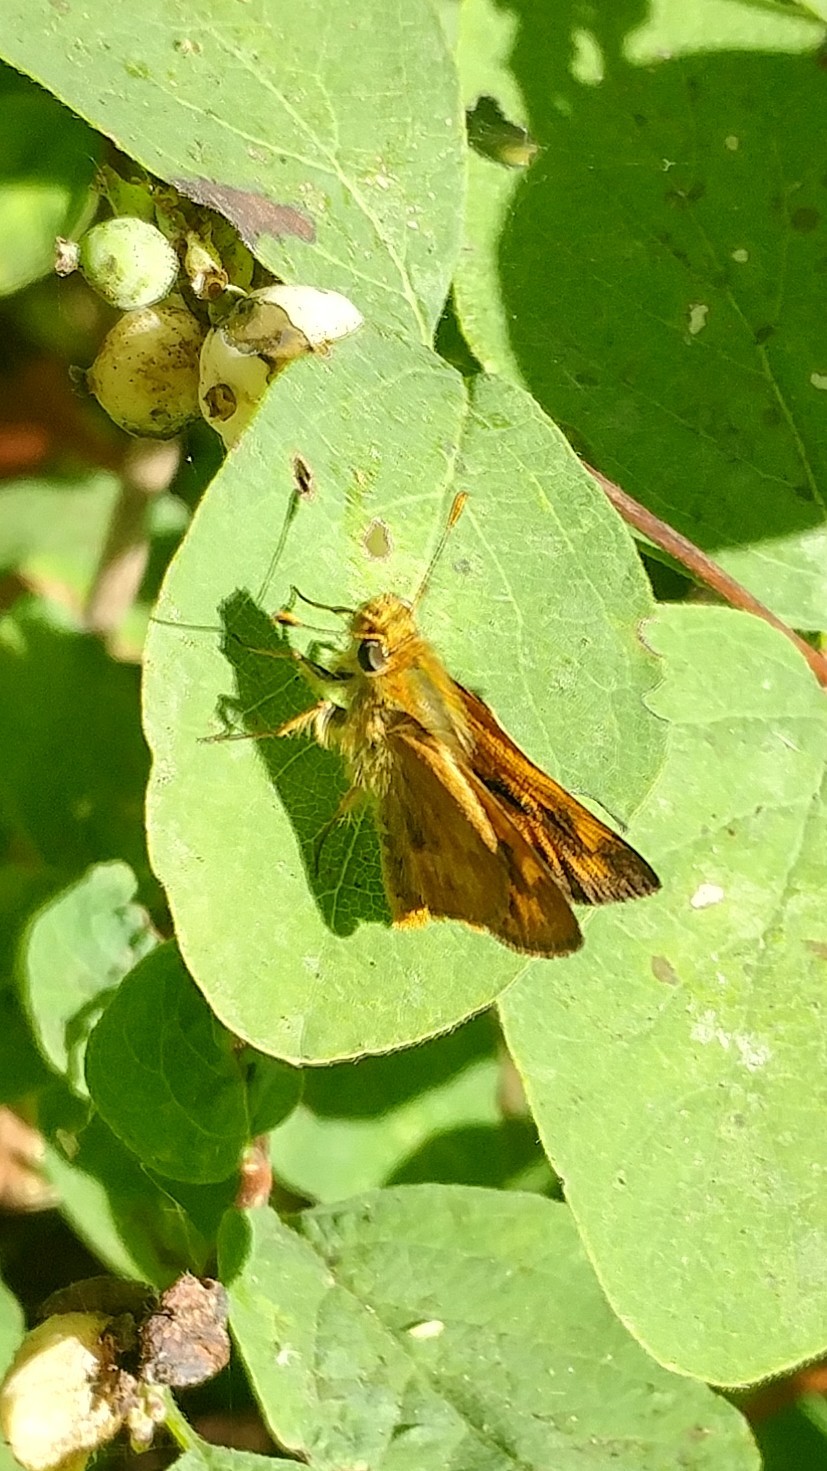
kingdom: Animalia
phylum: Arthropoda
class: Insecta
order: Lepidoptera
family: Hesperiidae
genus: Ochlodes
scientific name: Ochlodes sylvanoides
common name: Woodland skipper
